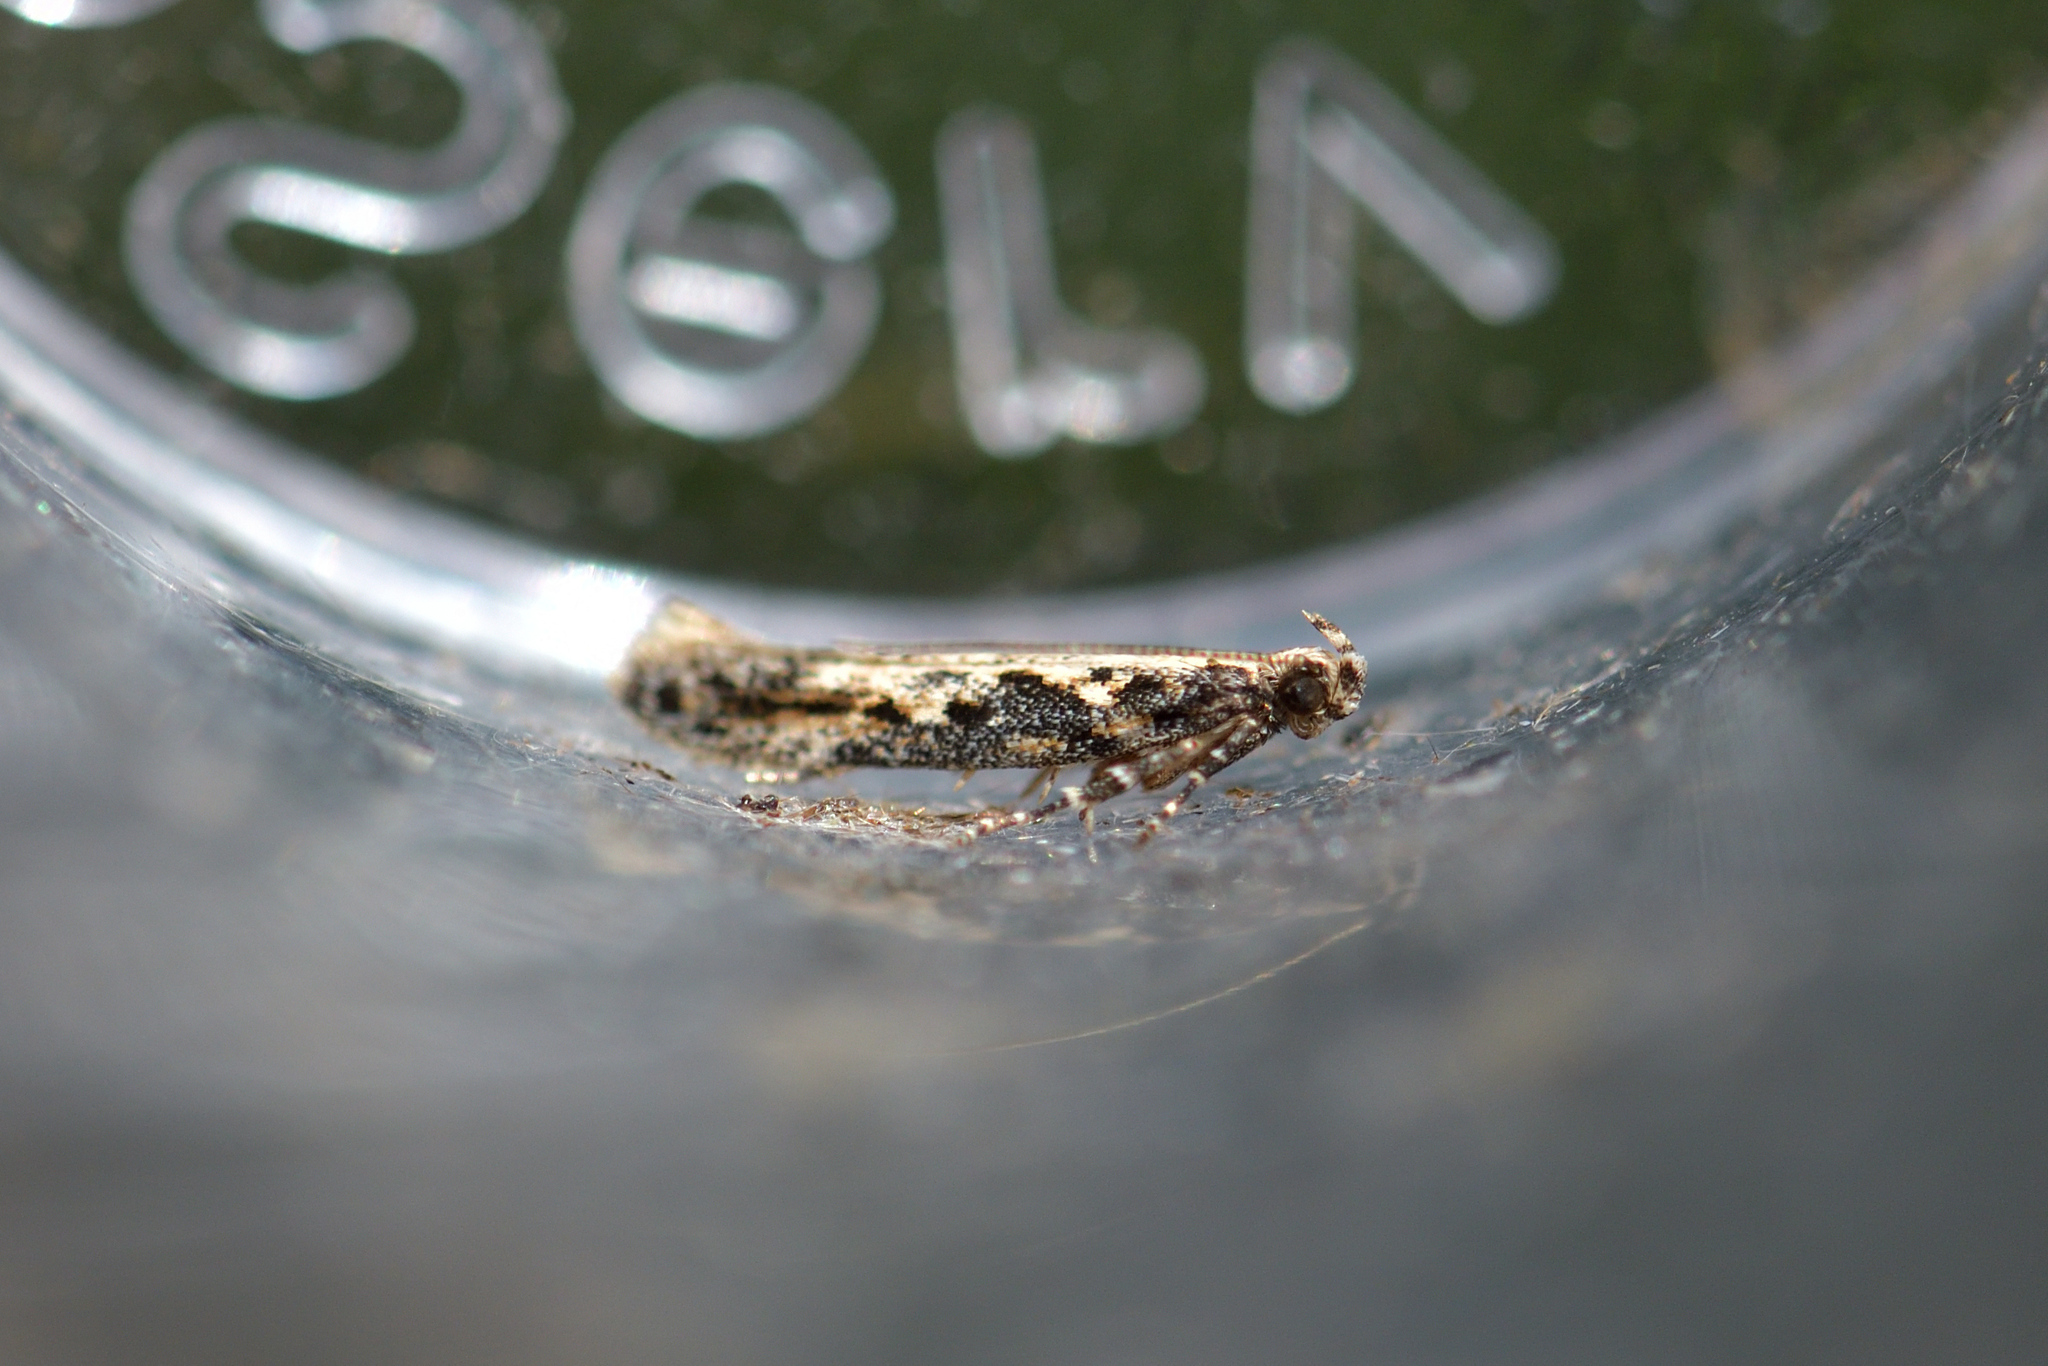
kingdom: Animalia
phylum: Arthropoda
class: Insecta
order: Lepidoptera
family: Gelechiidae
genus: Kiwaia
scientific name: Kiwaia brontophora
